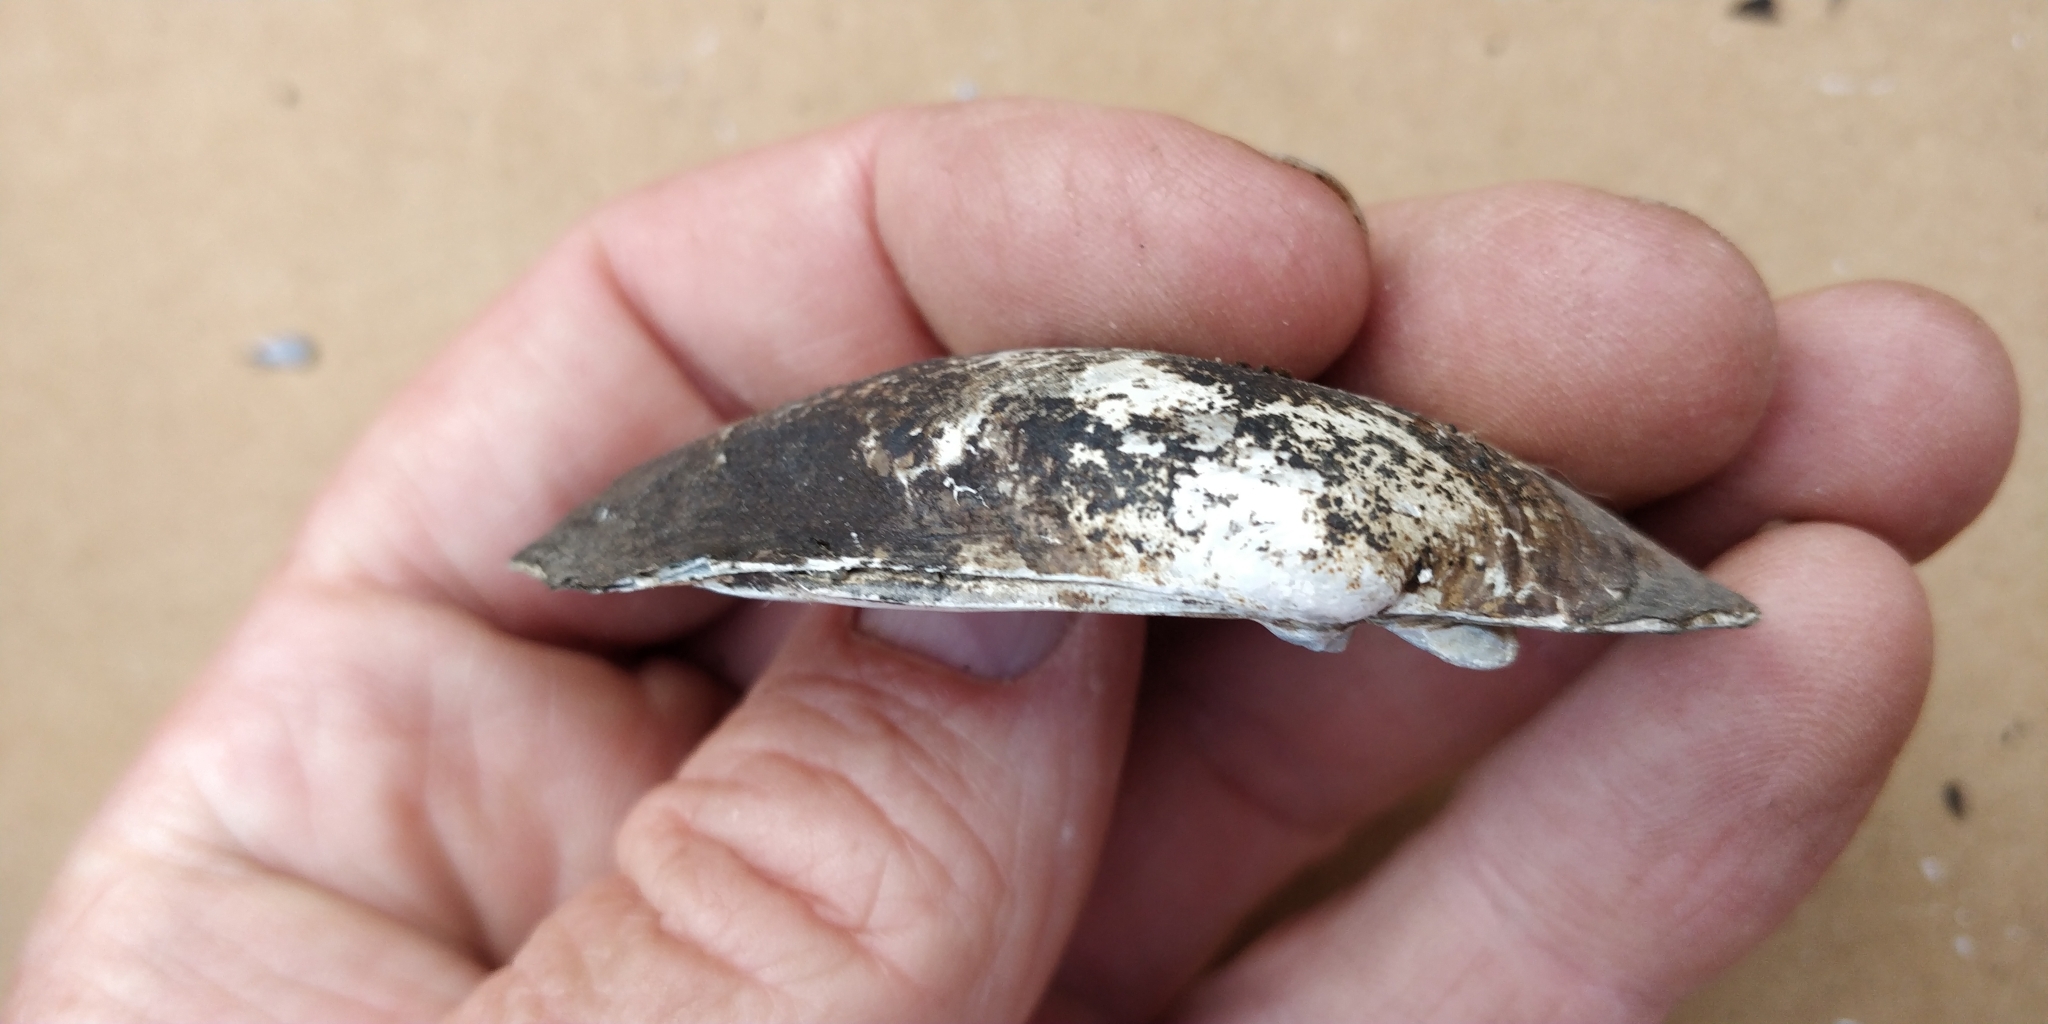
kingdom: Animalia
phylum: Mollusca
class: Bivalvia
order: Unionida
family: Unionidae
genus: Lampsilis
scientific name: Lampsilis siliquoidea
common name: Fatmucket
